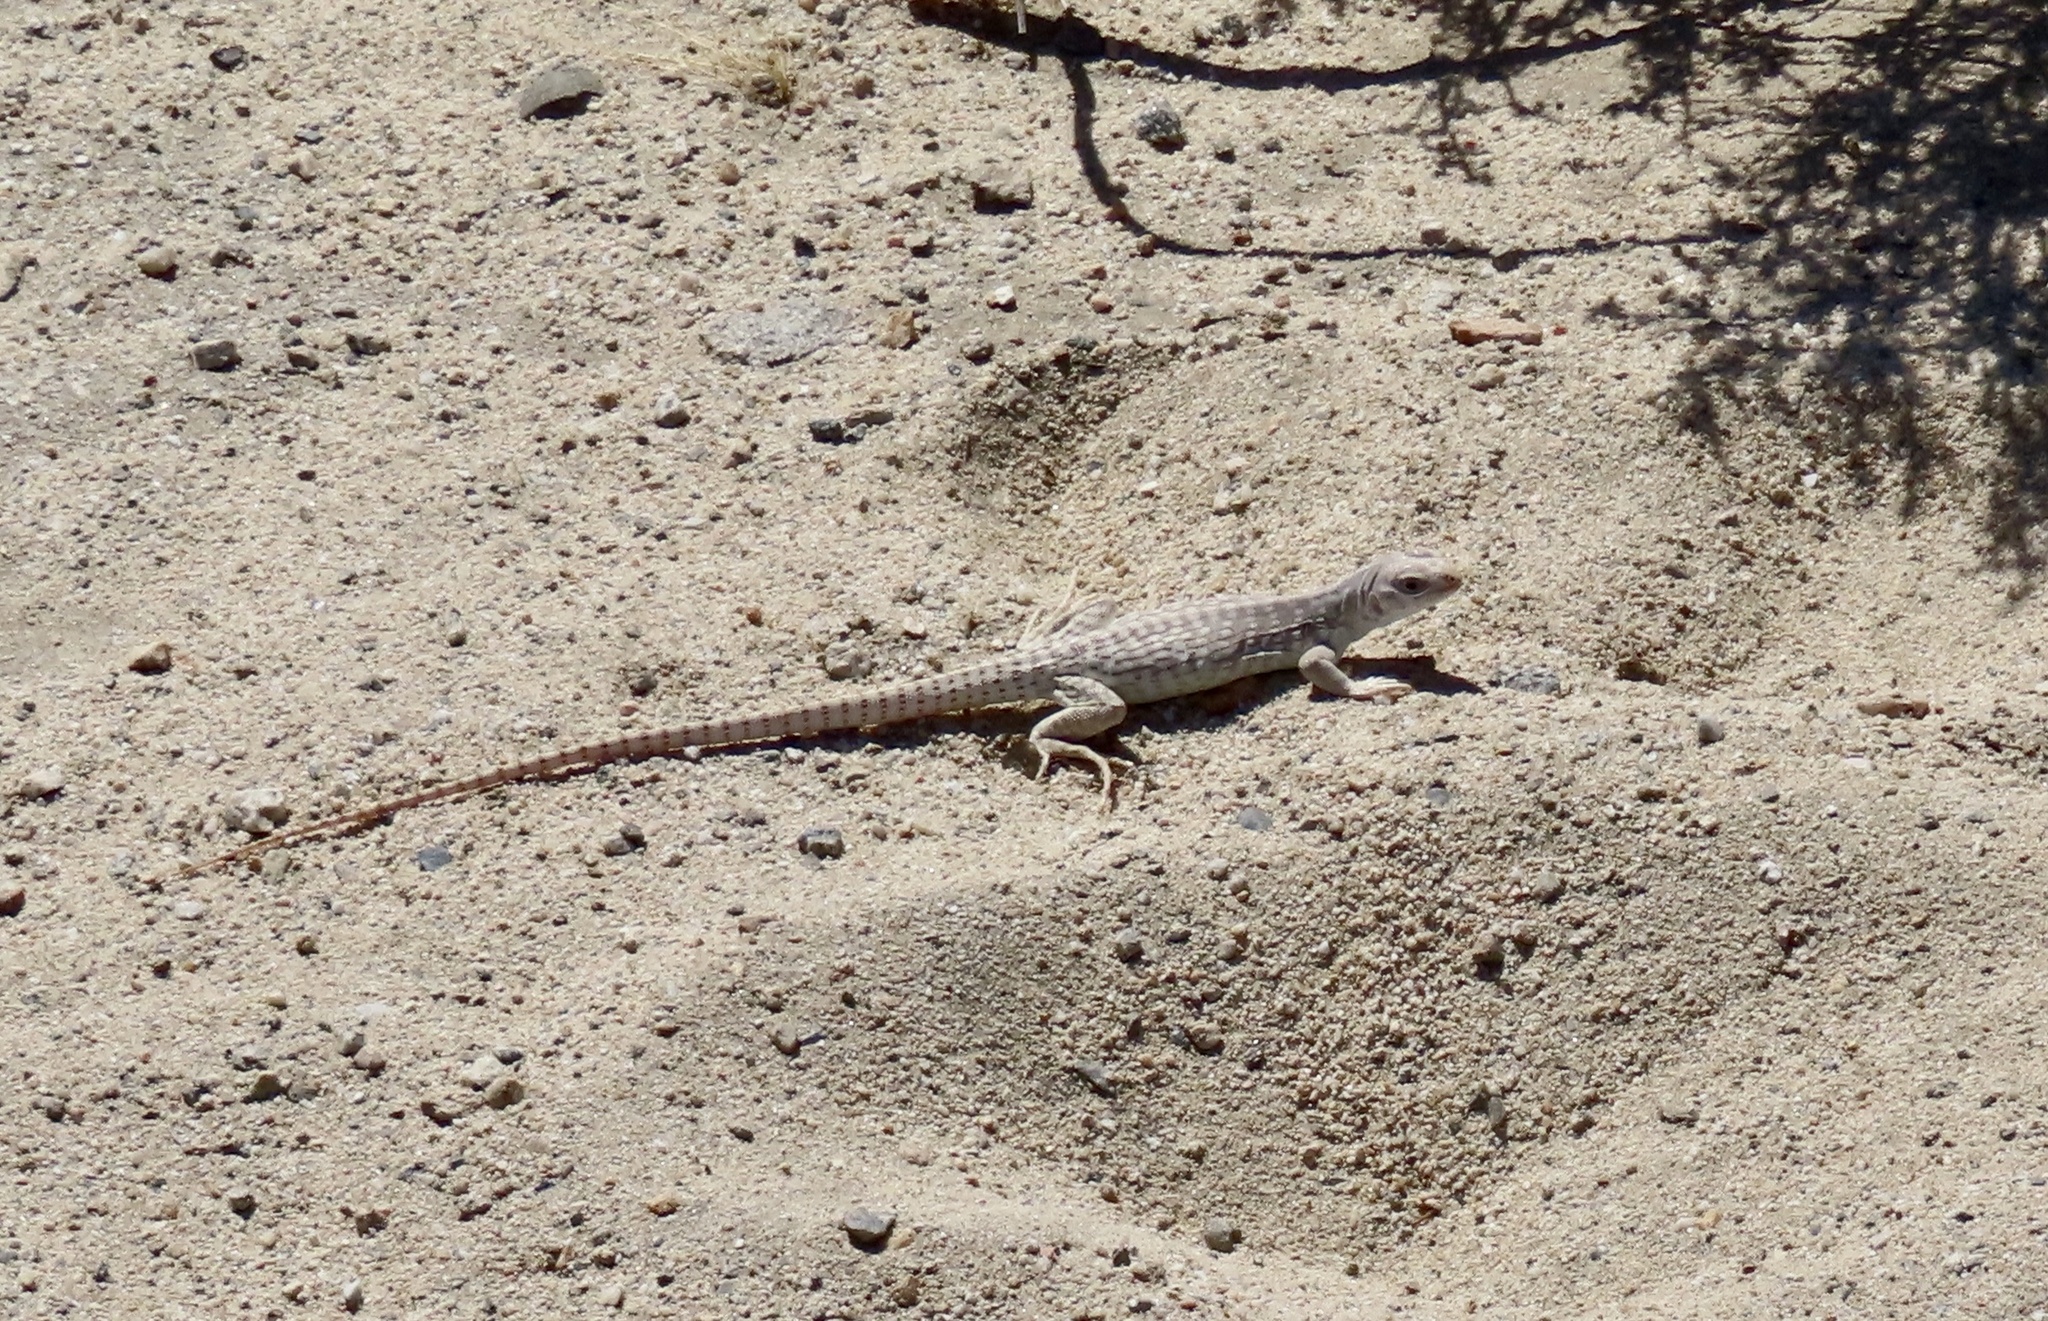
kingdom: Animalia
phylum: Chordata
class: Squamata
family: Iguanidae
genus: Dipsosaurus
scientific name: Dipsosaurus dorsalis
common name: Desert iguana
